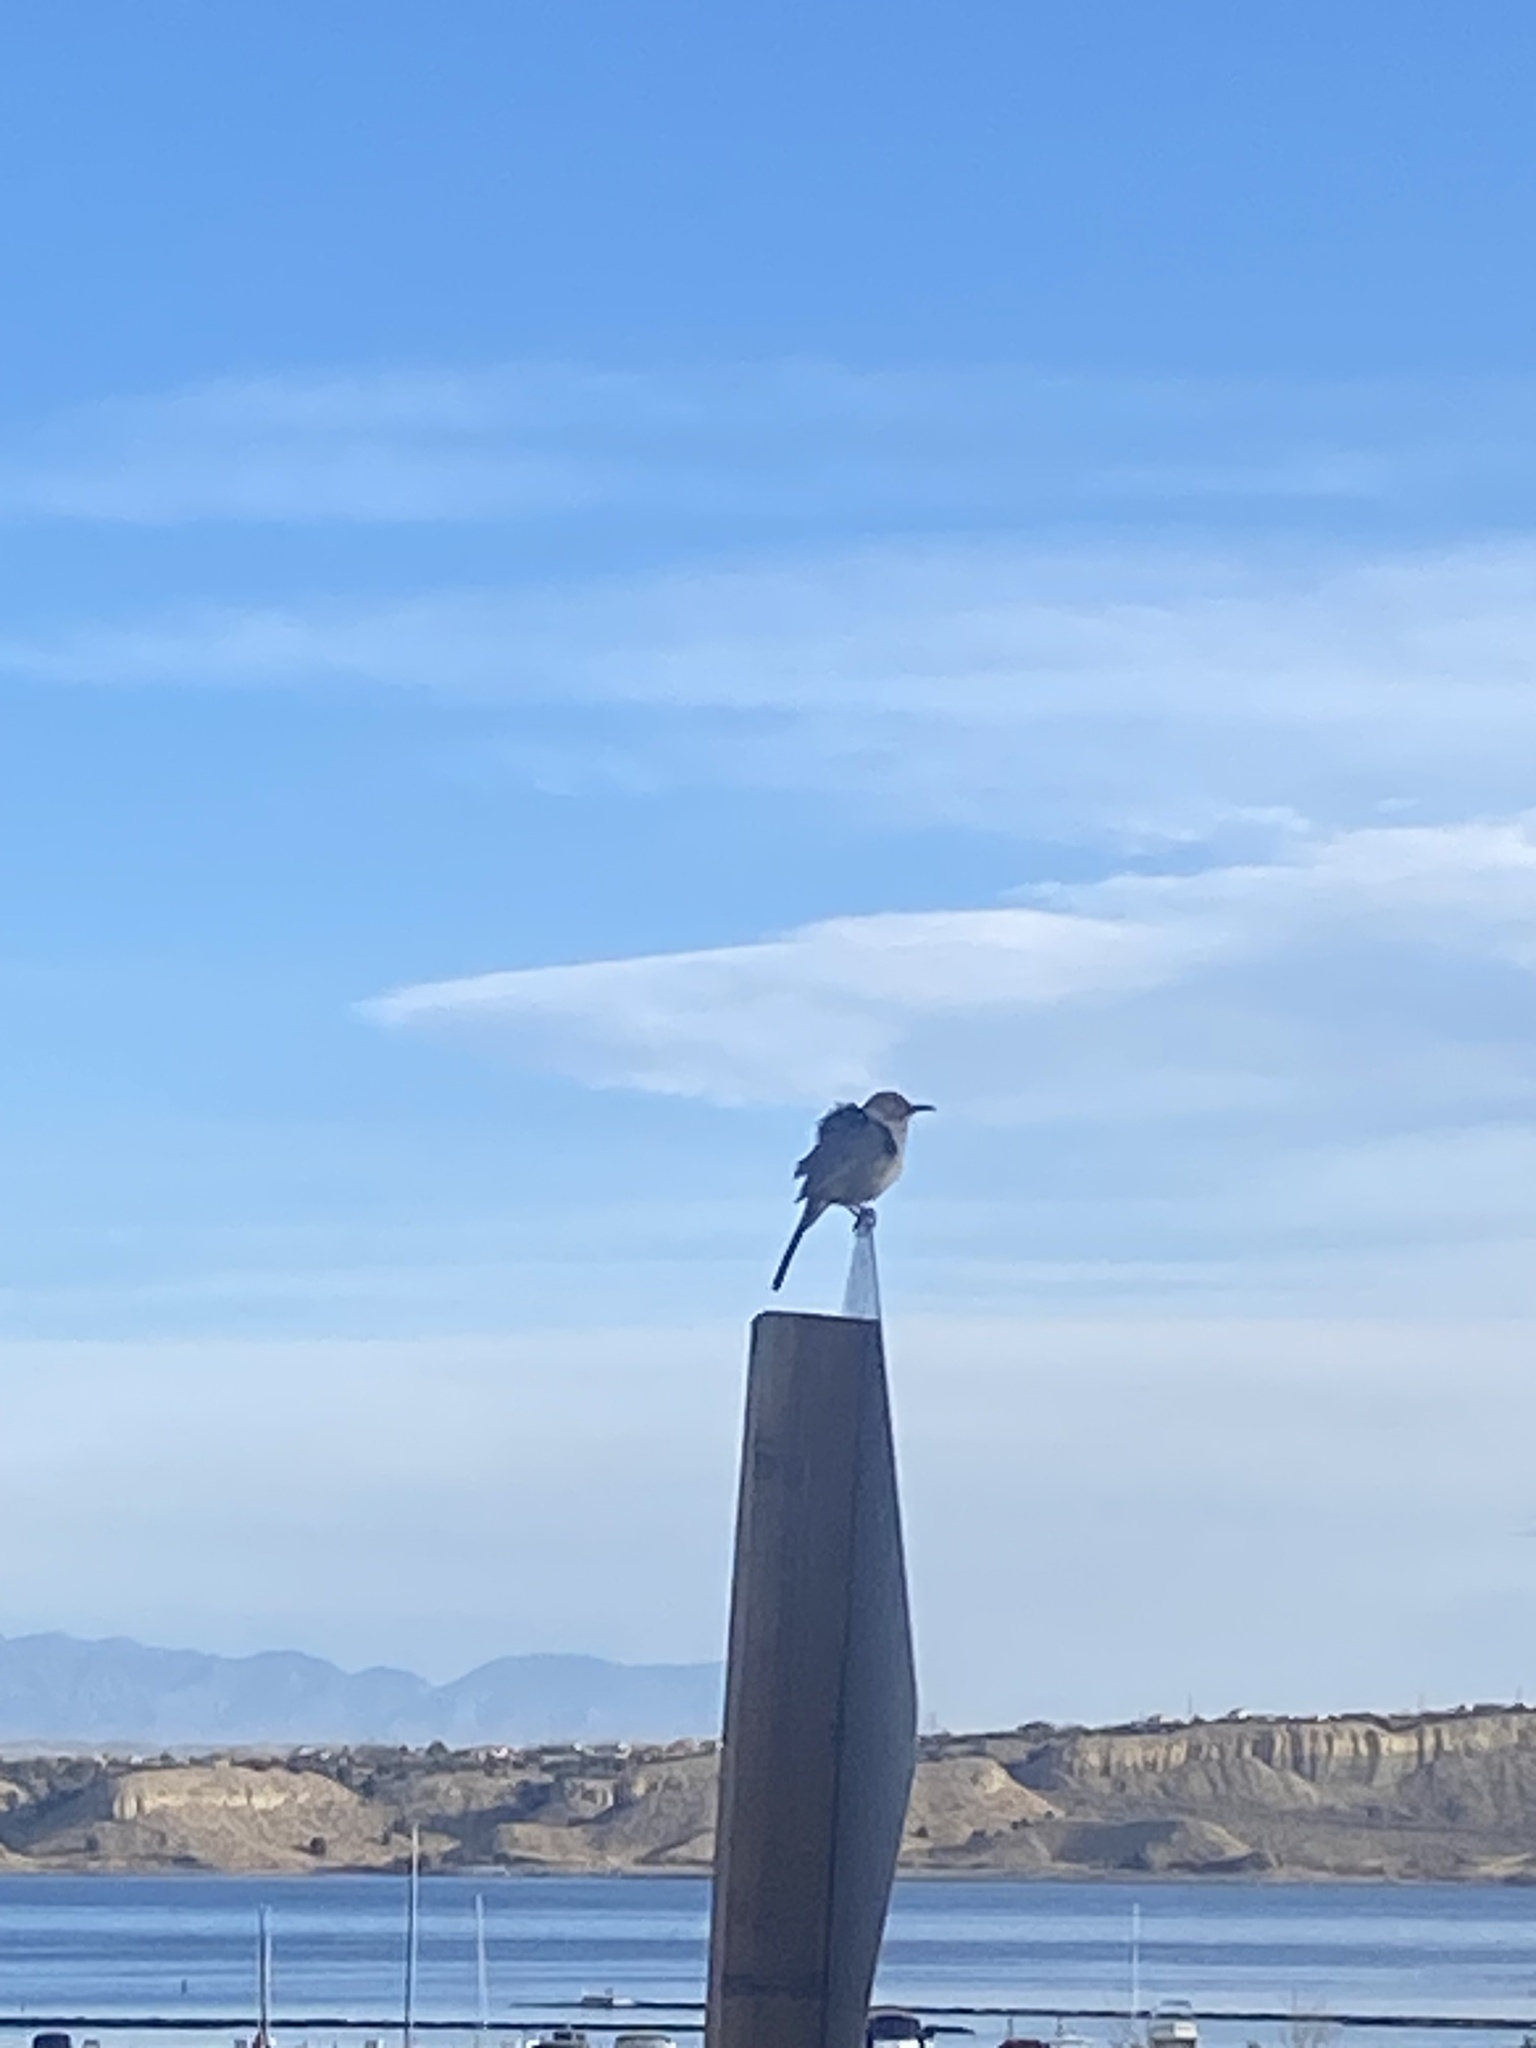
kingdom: Animalia
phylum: Chordata
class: Aves
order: Passeriformes
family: Mimidae
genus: Toxostoma
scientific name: Toxostoma curvirostre
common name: Curve-billed thrasher
